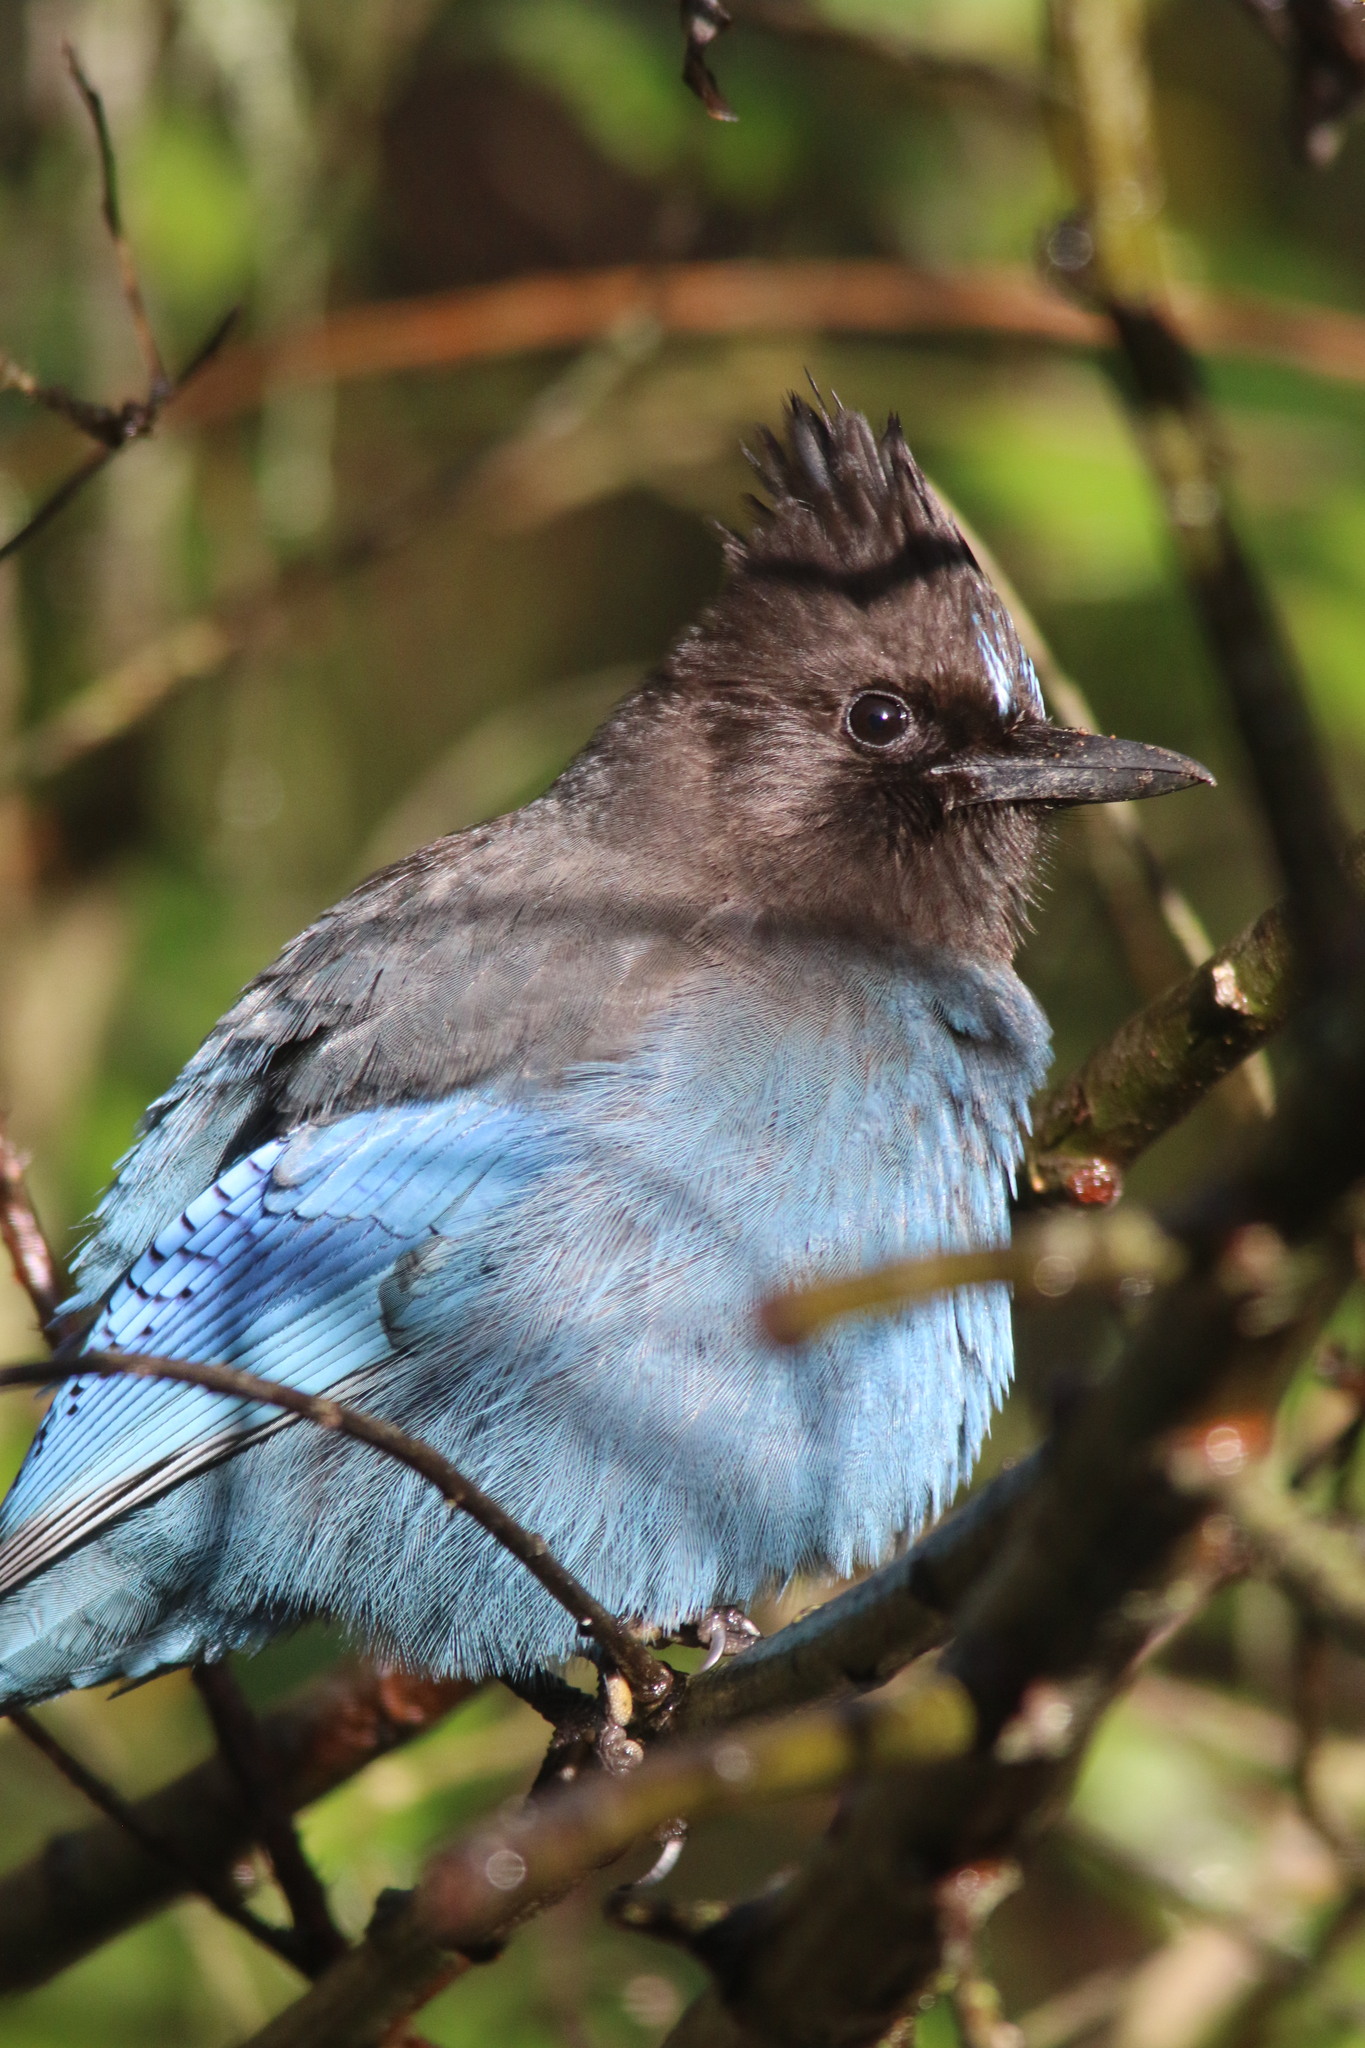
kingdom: Animalia
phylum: Chordata
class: Aves
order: Passeriformes
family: Corvidae
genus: Cyanocitta
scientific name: Cyanocitta stelleri
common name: Steller's jay
